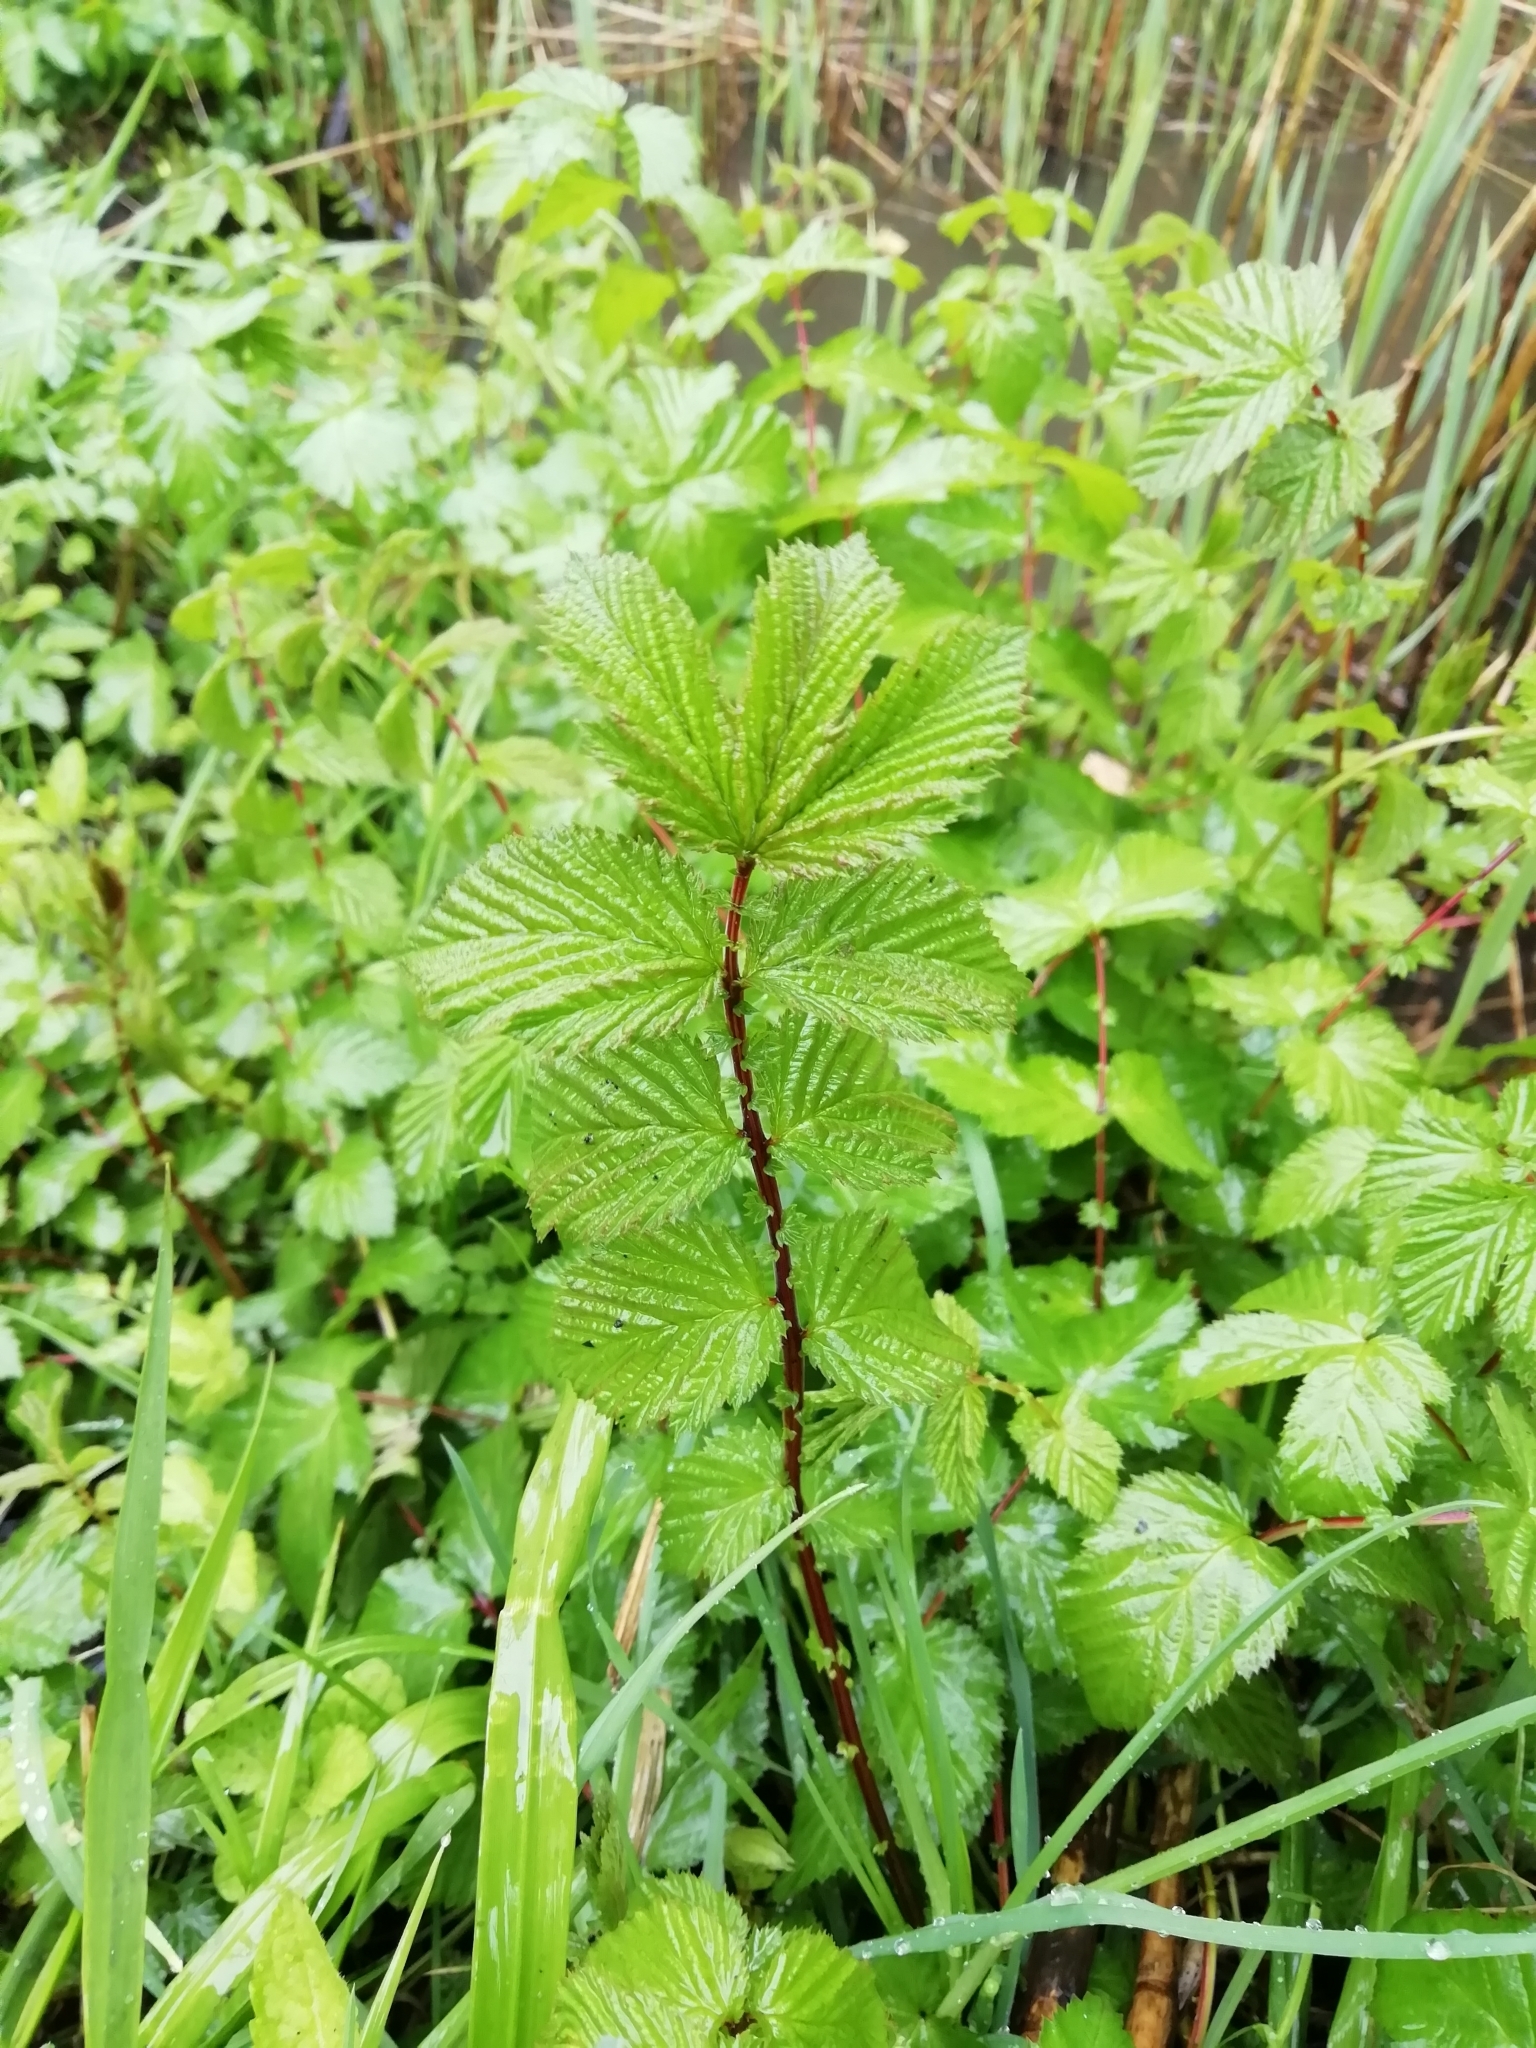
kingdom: Plantae
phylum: Tracheophyta
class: Magnoliopsida
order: Rosales
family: Rosaceae
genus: Filipendula
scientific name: Filipendula ulmaria
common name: Meadowsweet
